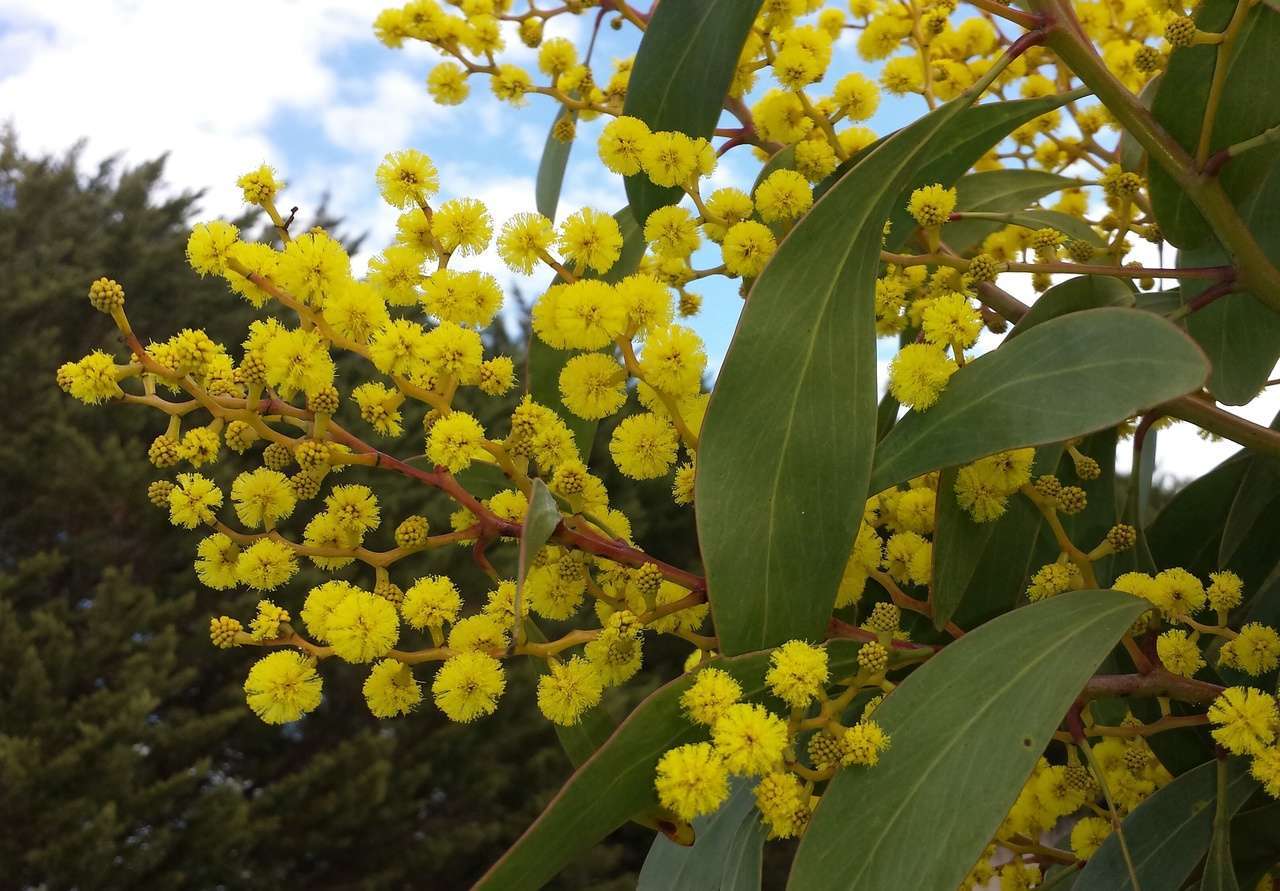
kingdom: Plantae
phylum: Tracheophyta
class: Magnoliopsida
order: Fabales
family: Fabaceae
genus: Acacia
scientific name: Acacia pycnantha
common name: Golden wattle
